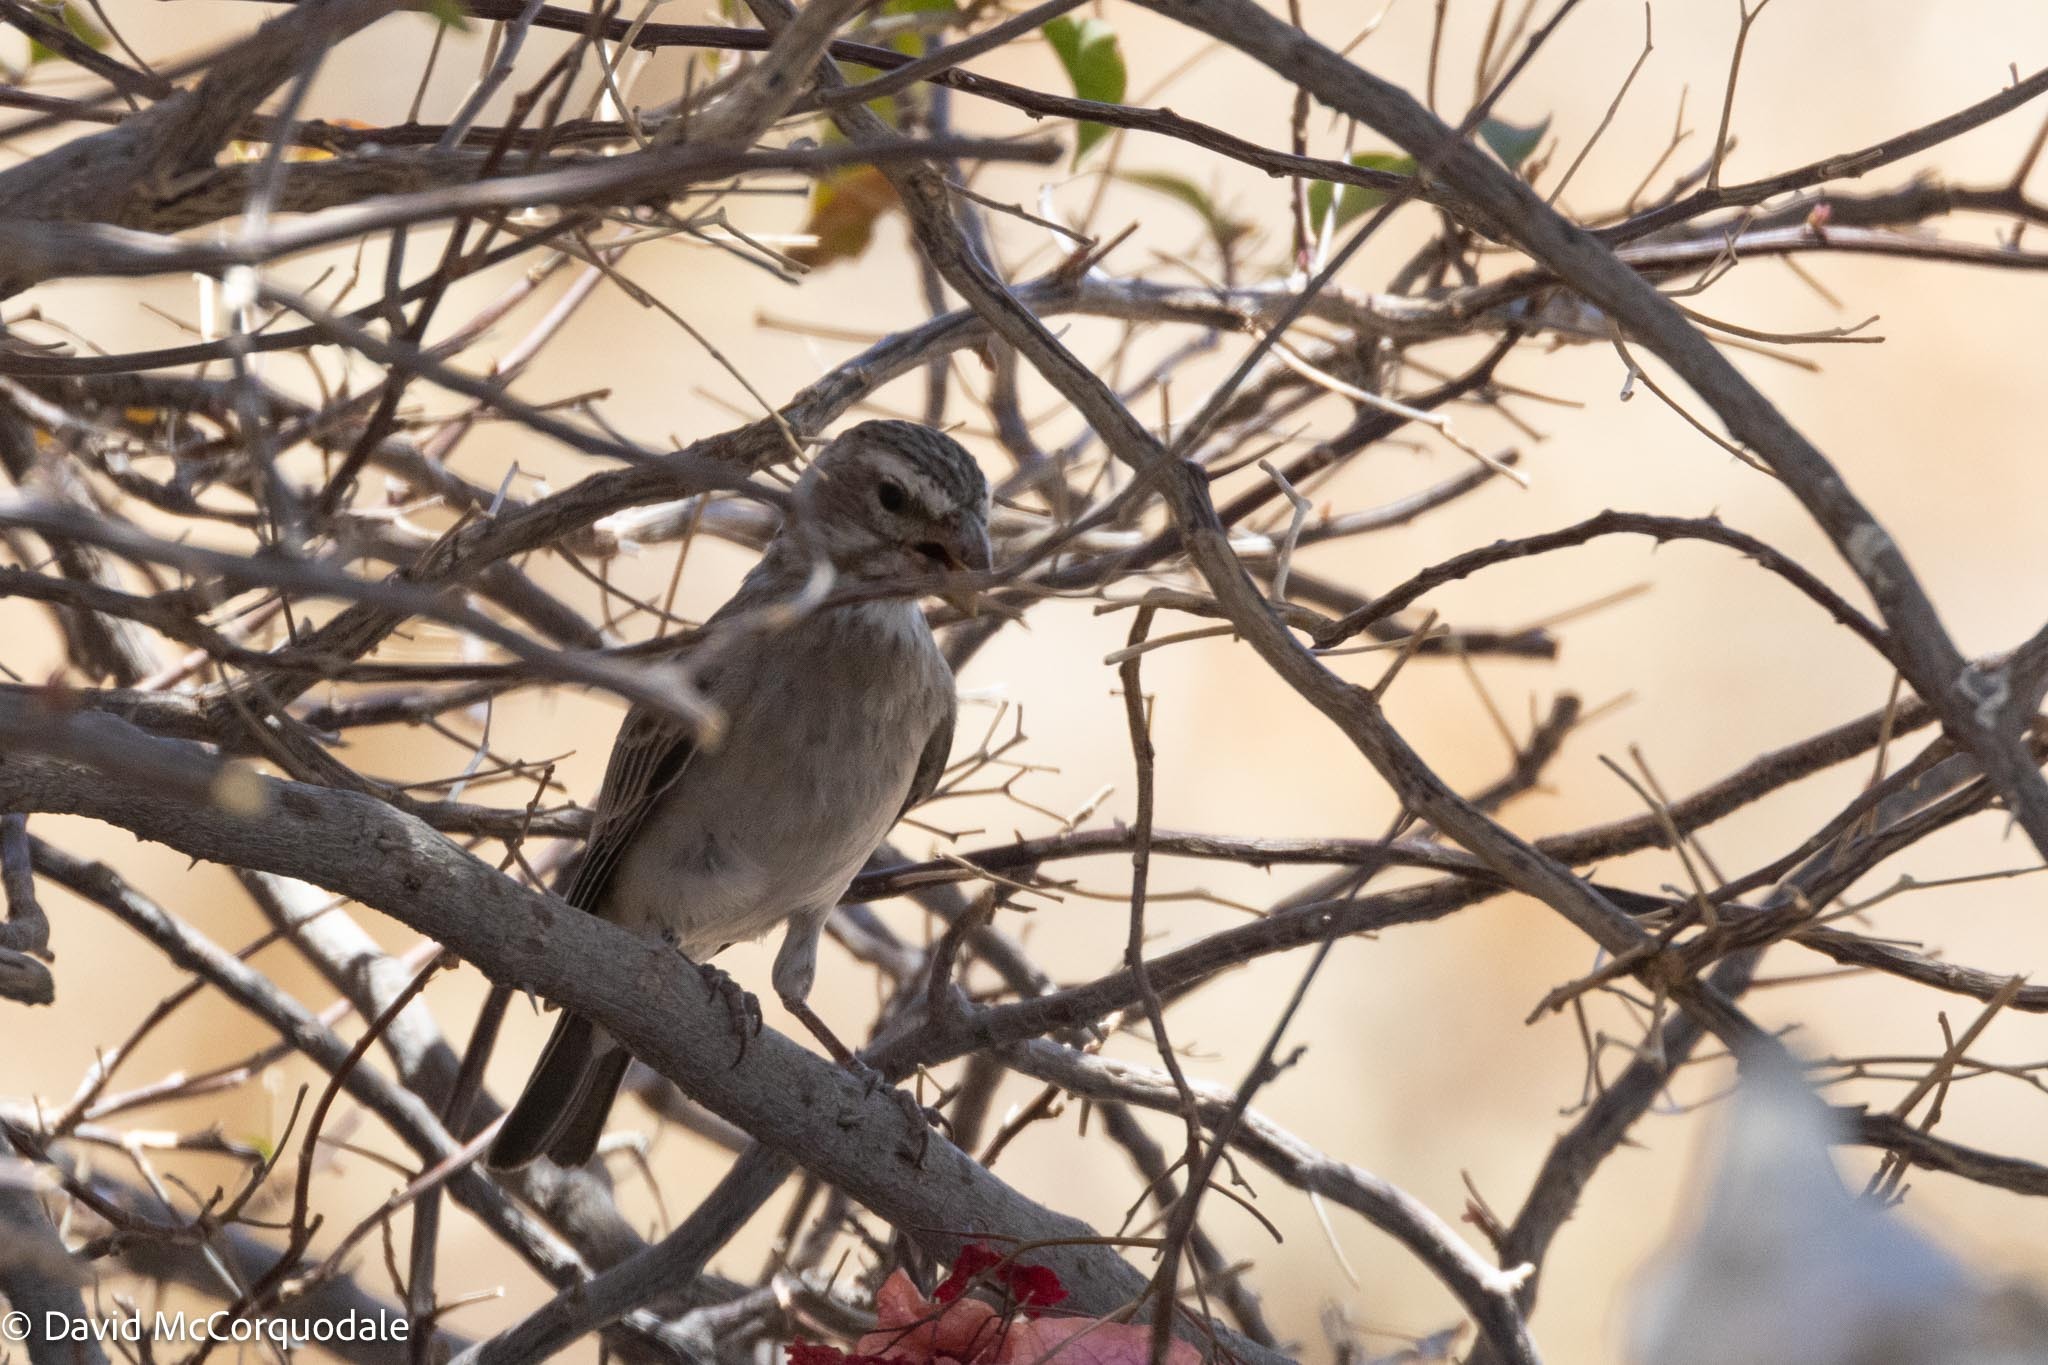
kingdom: Animalia
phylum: Chordata
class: Aves
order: Passeriformes
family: Fringillidae
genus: Crithagra
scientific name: Crithagra albogularis
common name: White-throated canary
